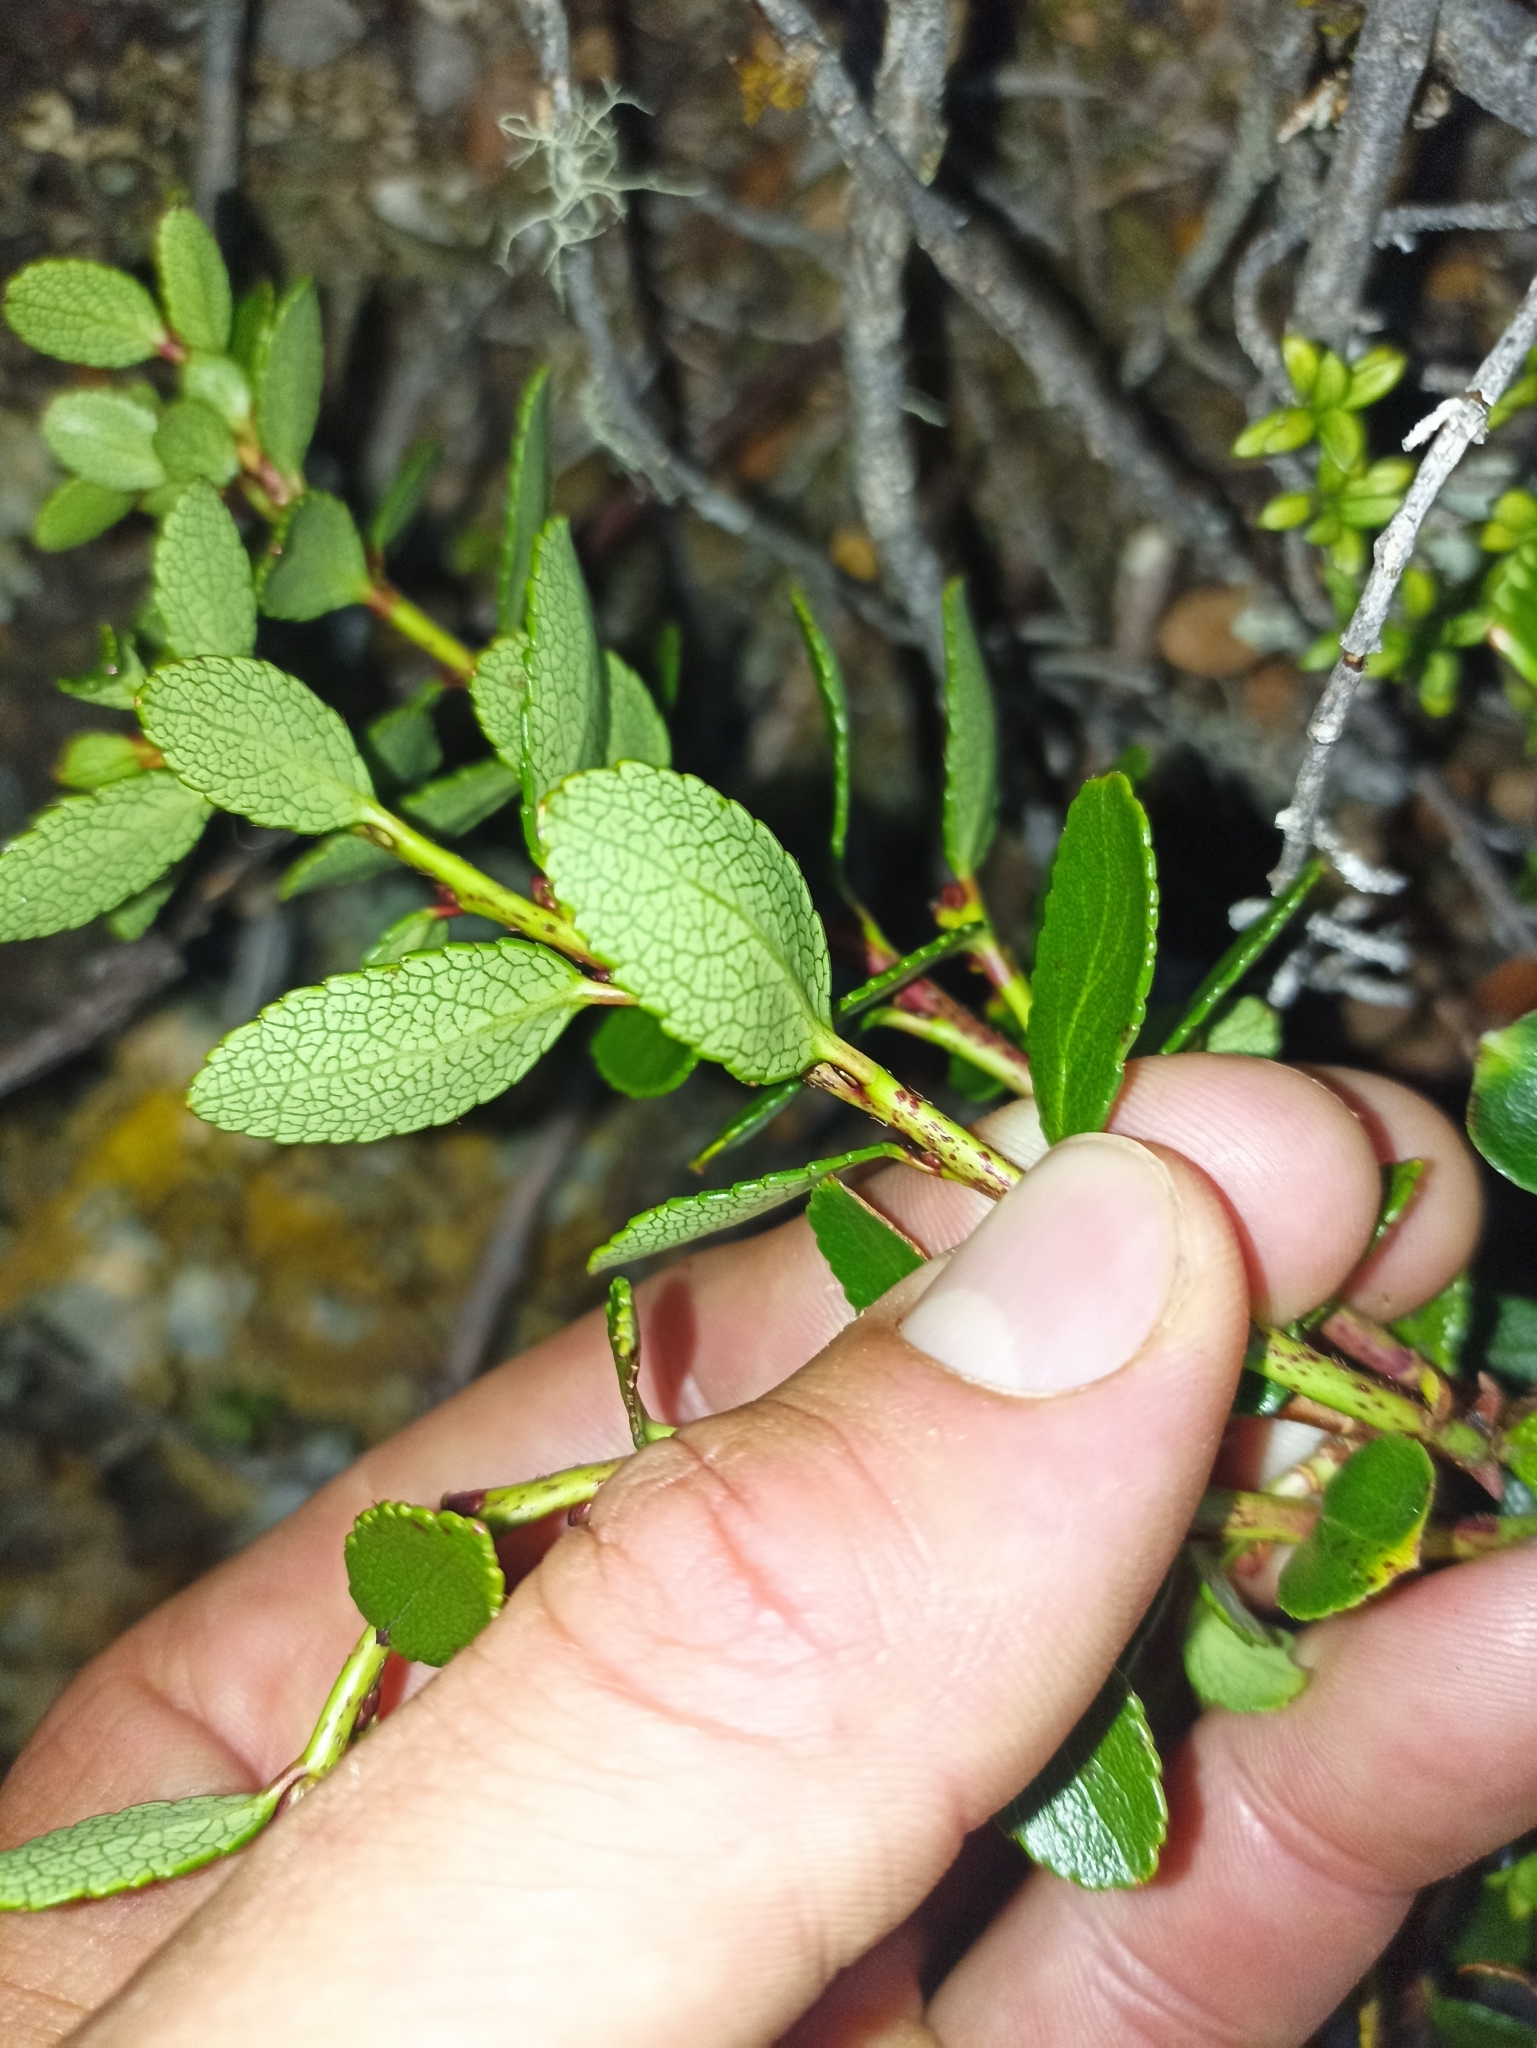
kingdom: Plantae
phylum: Tracheophyta
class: Magnoliopsida
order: Ericales
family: Ericaceae
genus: Gaultheria
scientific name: Gaultheria crassa
